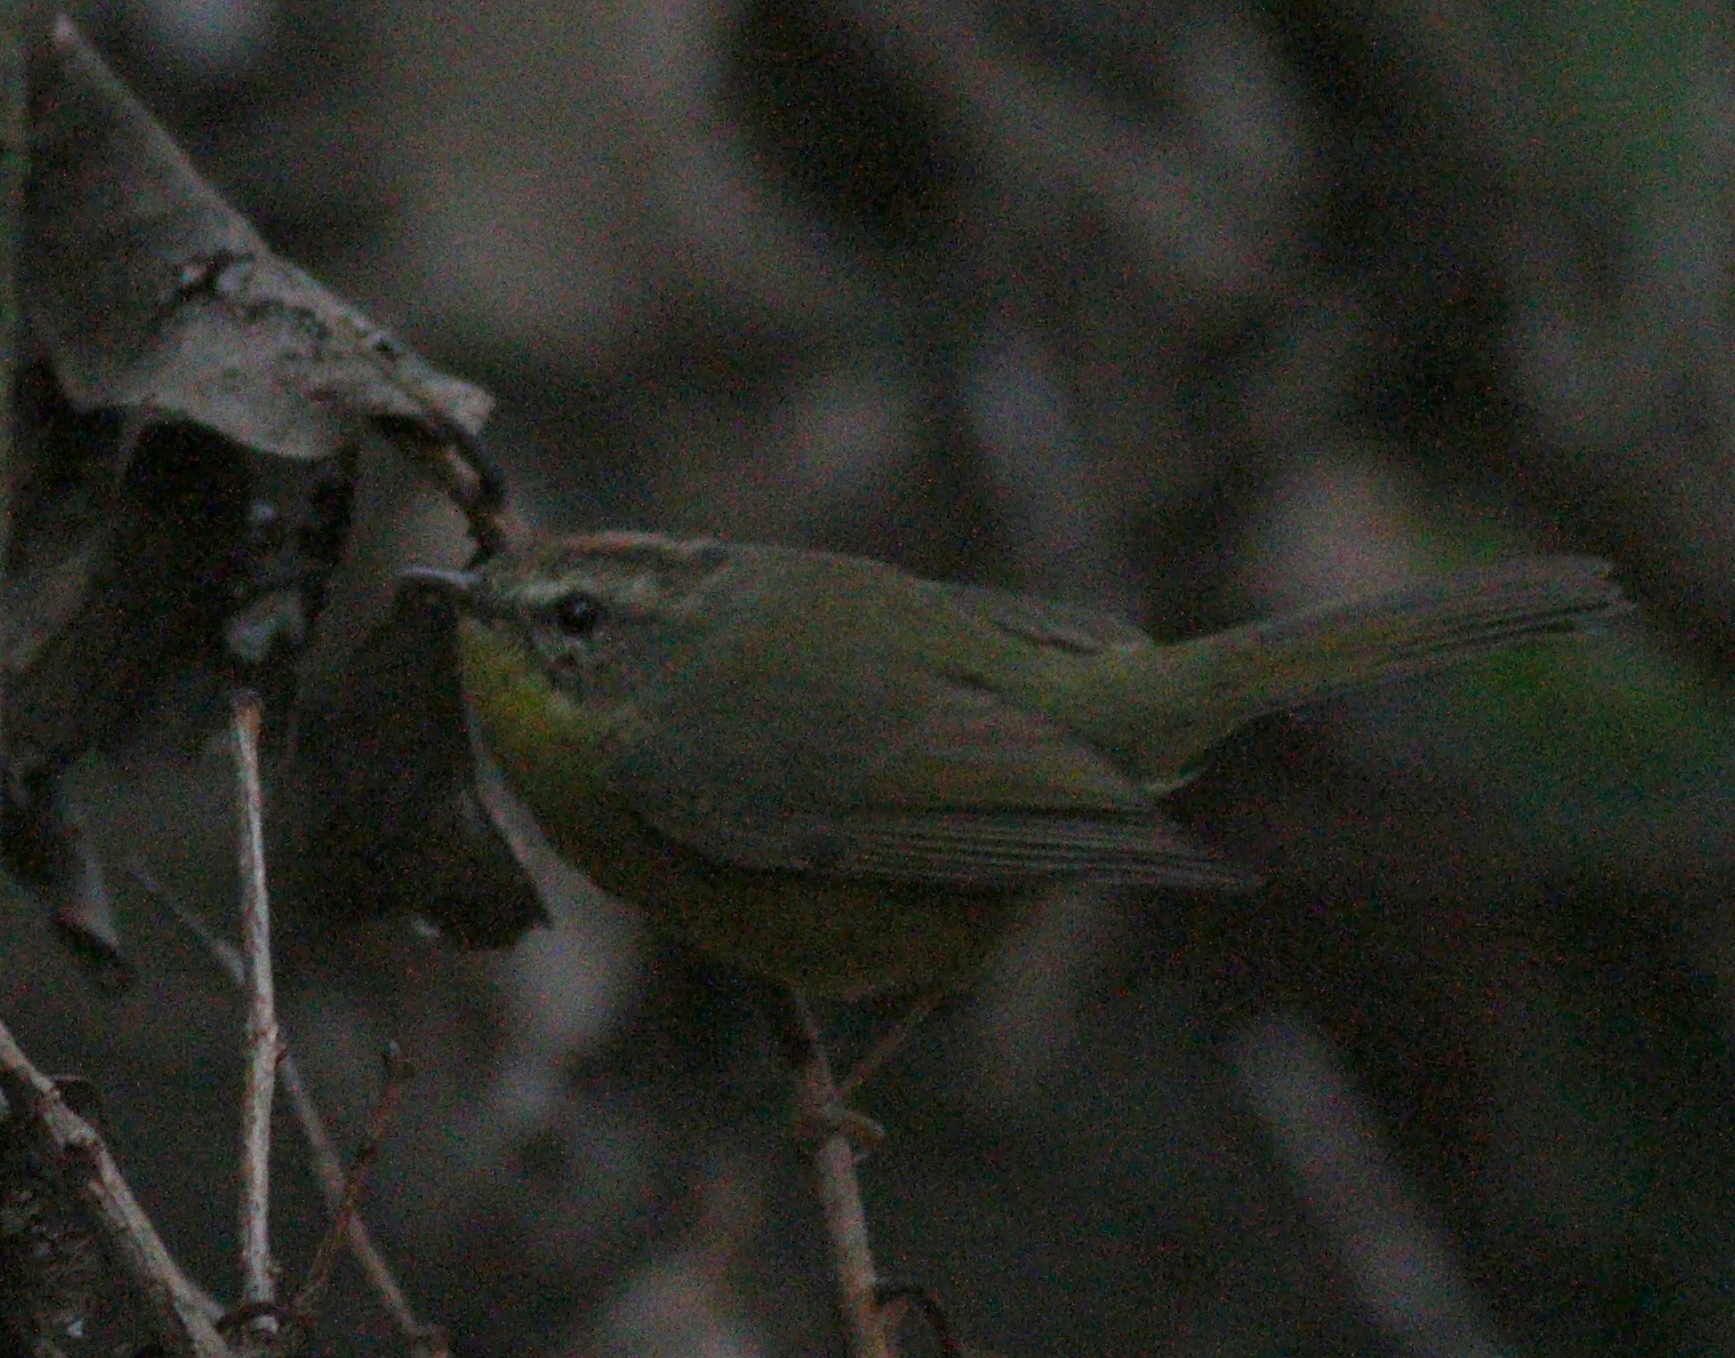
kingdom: Animalia
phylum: Chordata
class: Aves
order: Passeriformes
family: Parulidae
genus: Basileuterus
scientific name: Basileuterus culicivorus
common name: Golden-crowned warbler
